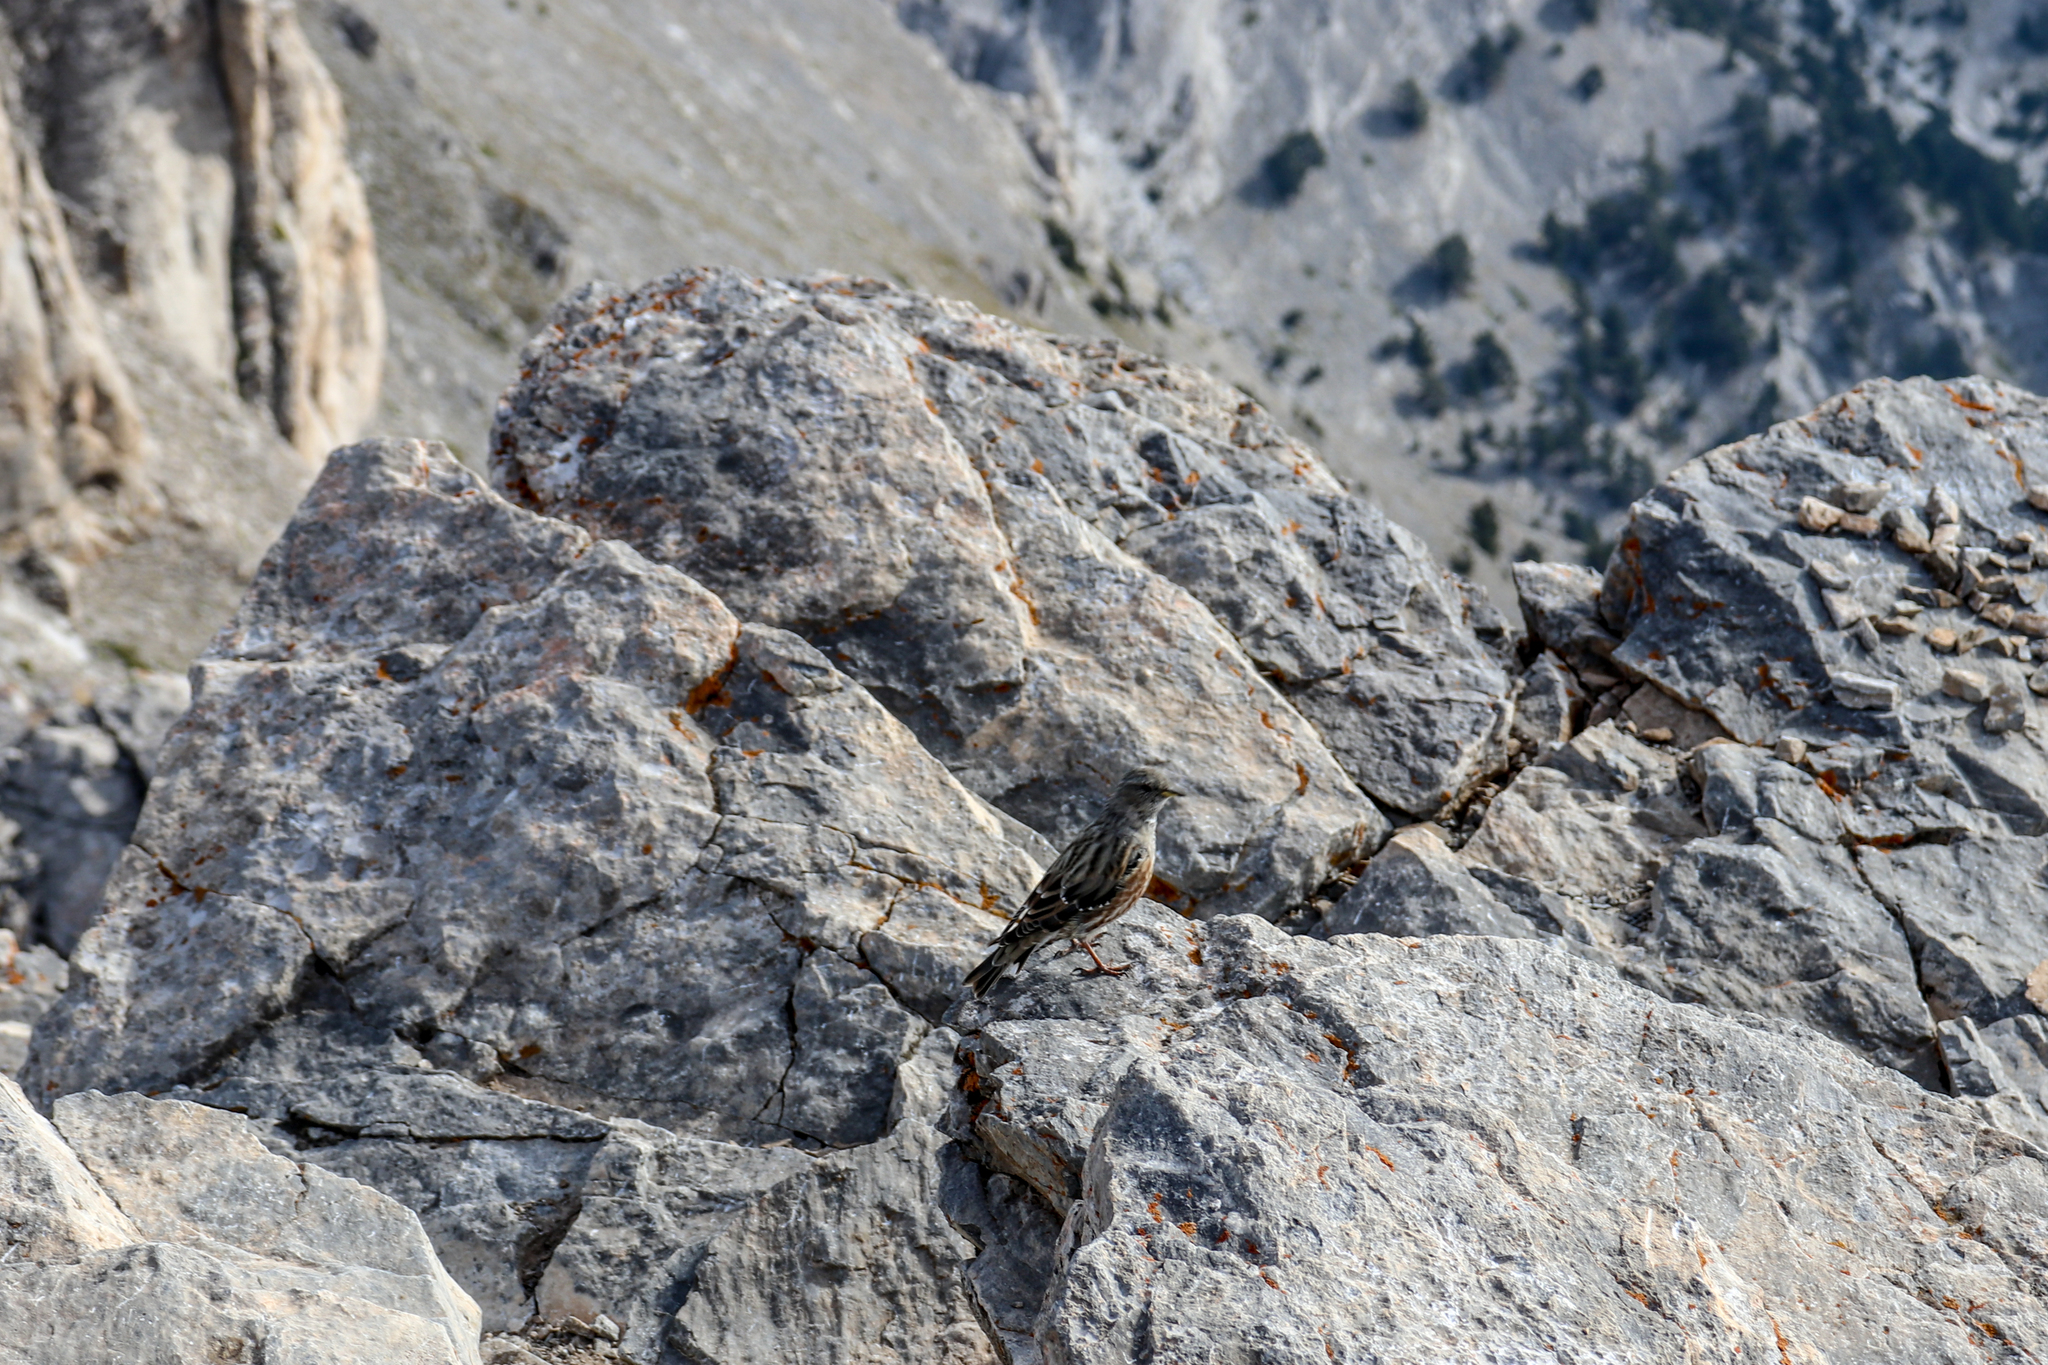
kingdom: Animalia
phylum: Chordata
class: Aves
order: Passeriformes
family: Prunellidae
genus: Prunella
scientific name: Prunella collaris
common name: Alpine accentor
